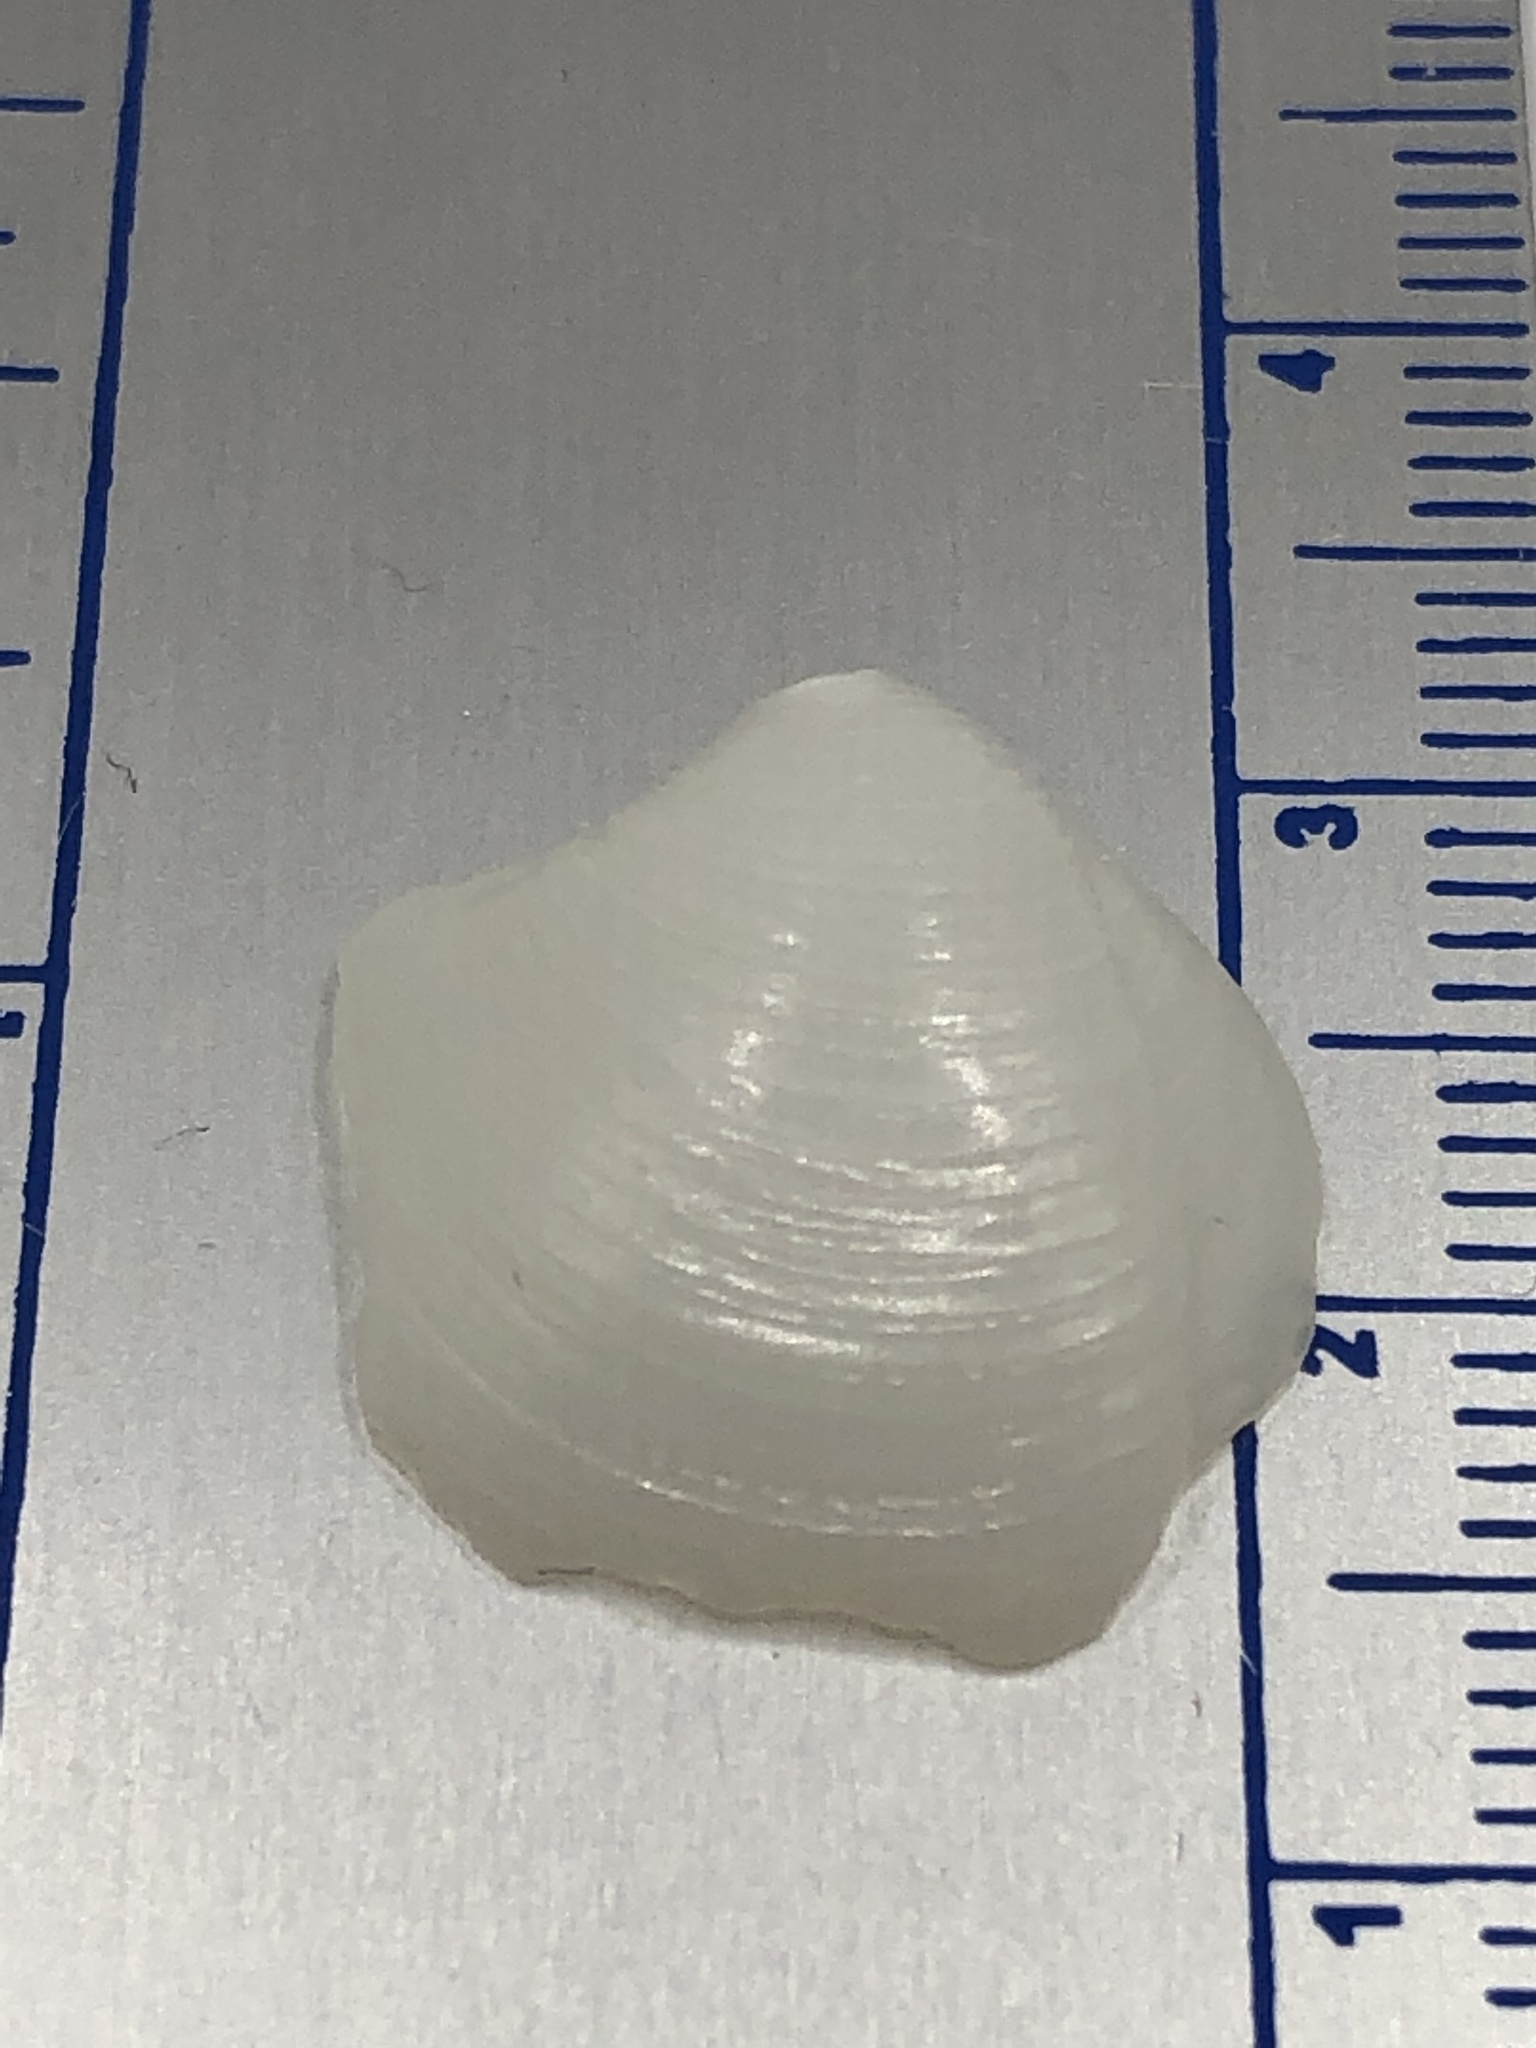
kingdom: Animalia
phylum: Mollusca
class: Bivalvia
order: Lucinida
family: Lucinidae
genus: Lucina
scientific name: Lucina pensylvanica
